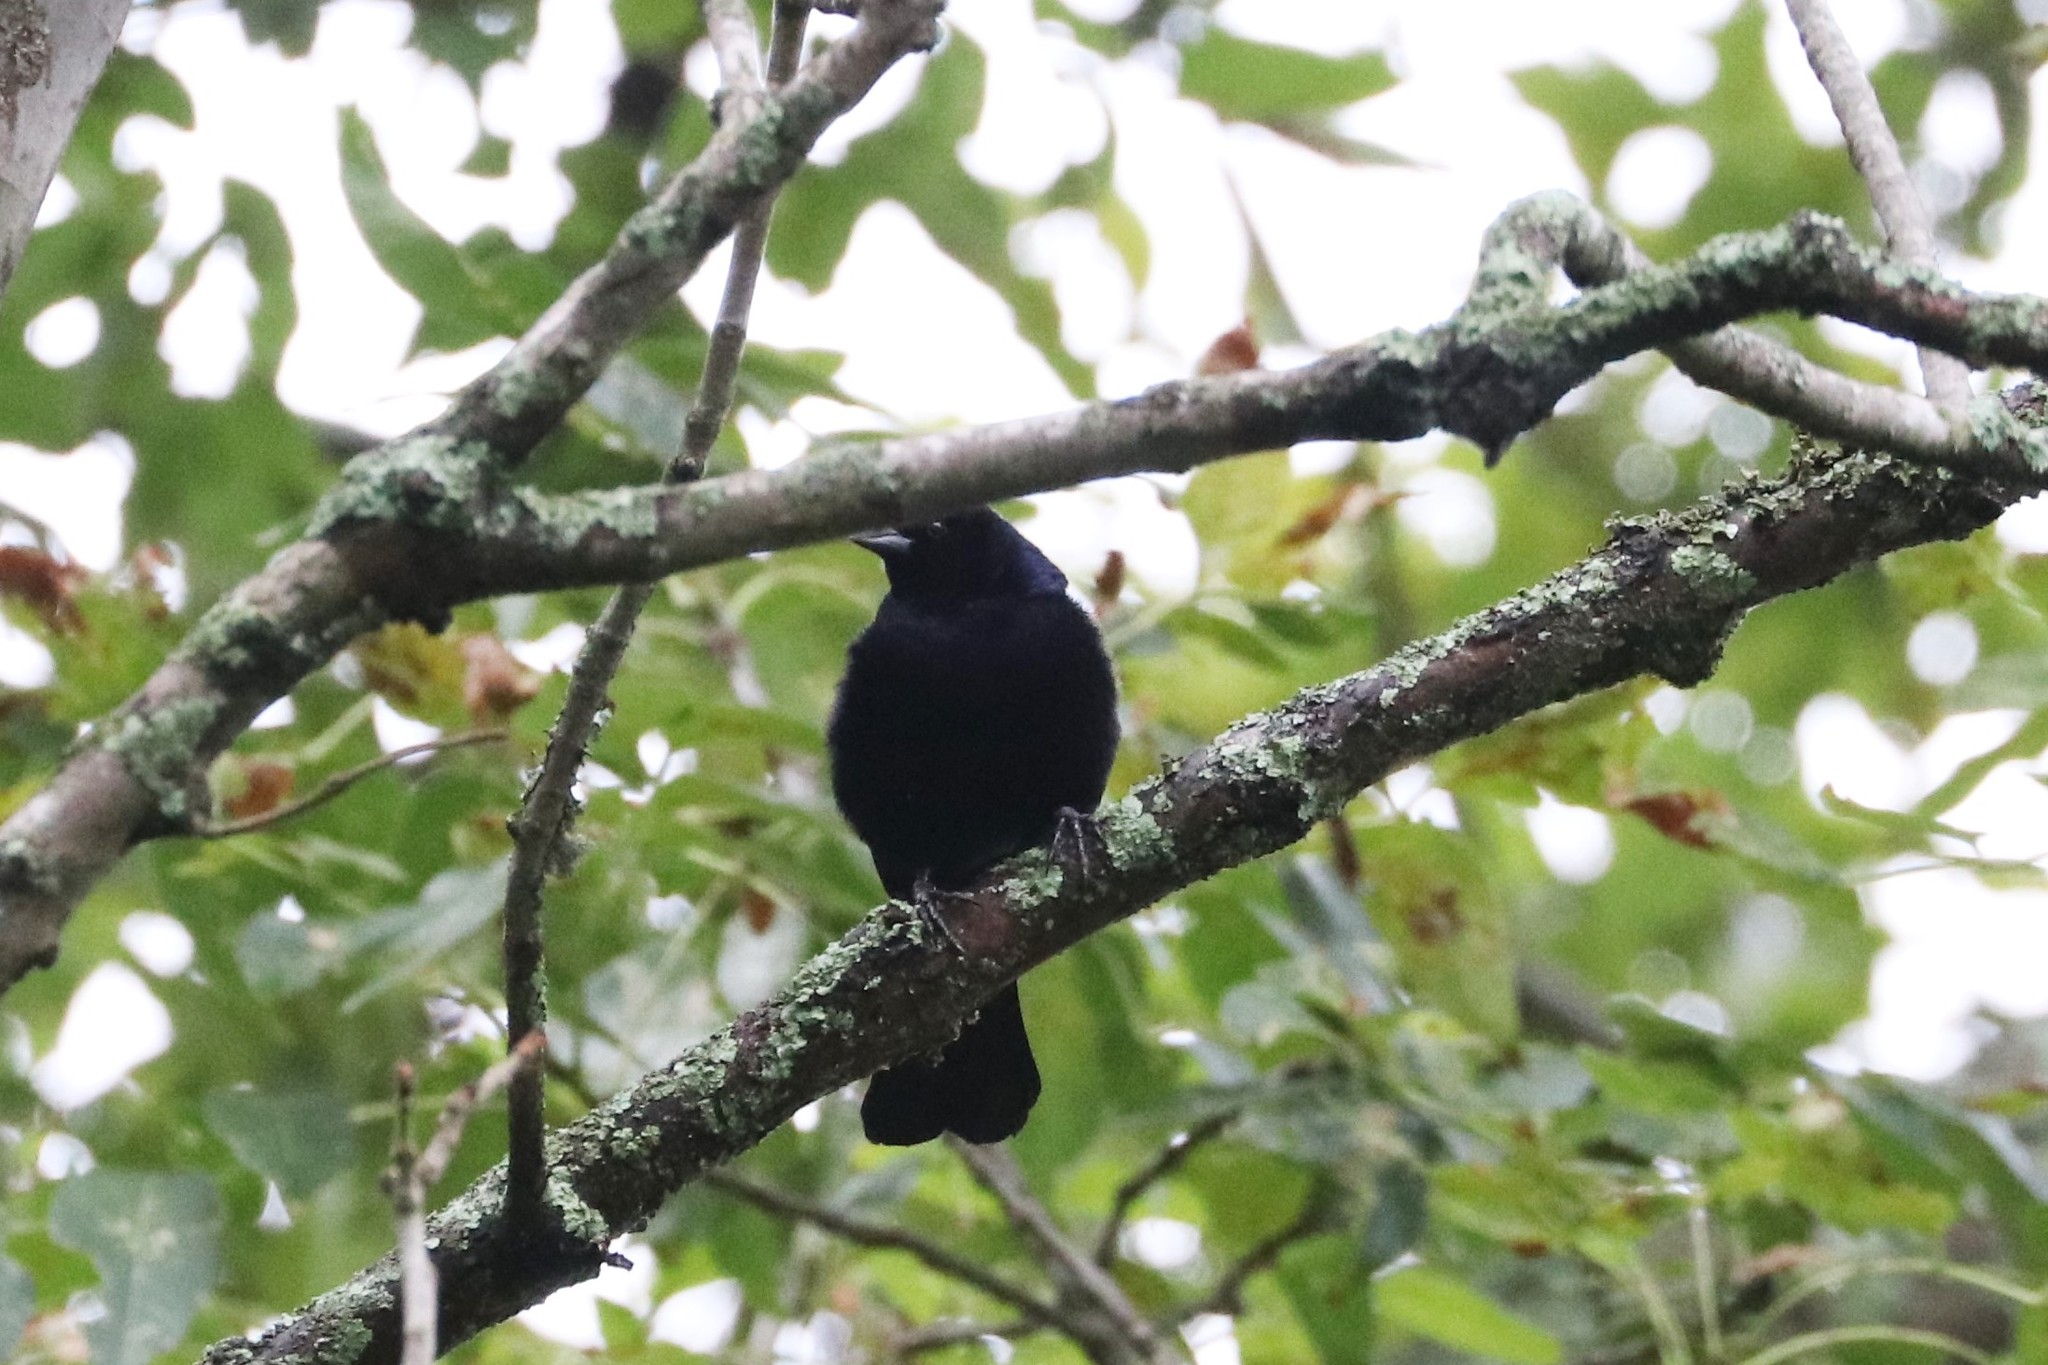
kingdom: Animalia
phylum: Chordata
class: Aves
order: Passeriformes
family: Icteridae
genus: Molothrus
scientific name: Molothrus bonariensis
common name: Shiny cowbird
